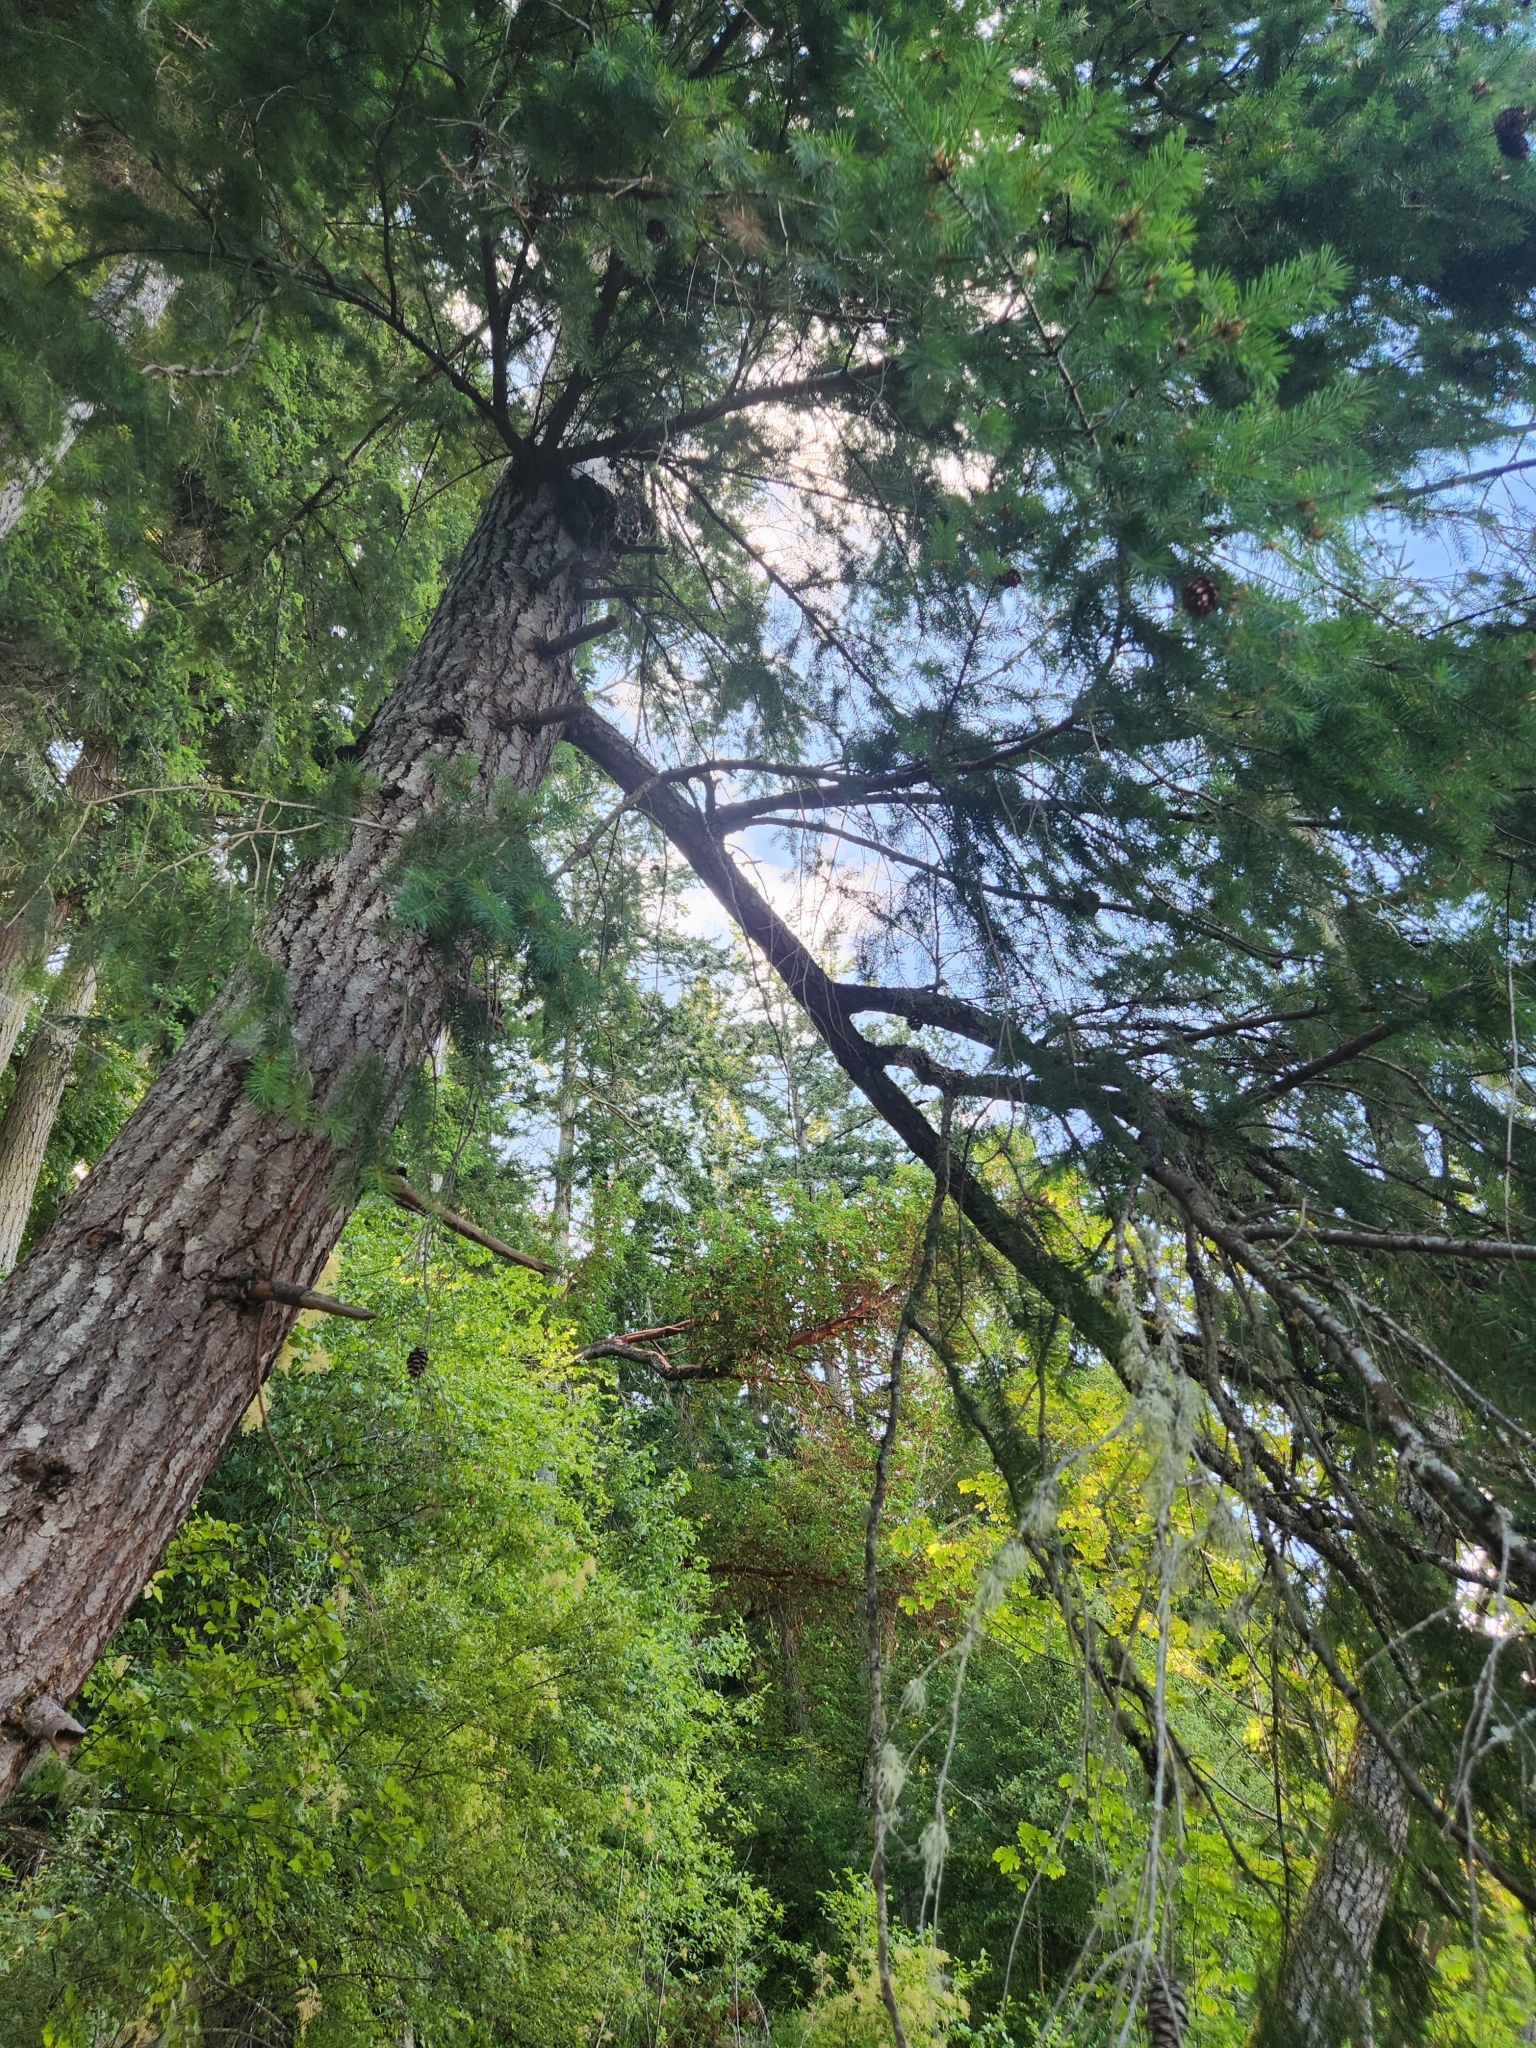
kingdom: Plantae
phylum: Tracheophyta
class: Pinopsida
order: Pinales
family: Pinaceae
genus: Pseudotsuga
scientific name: Pseudotsuga menziesii
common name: Douglas fir
